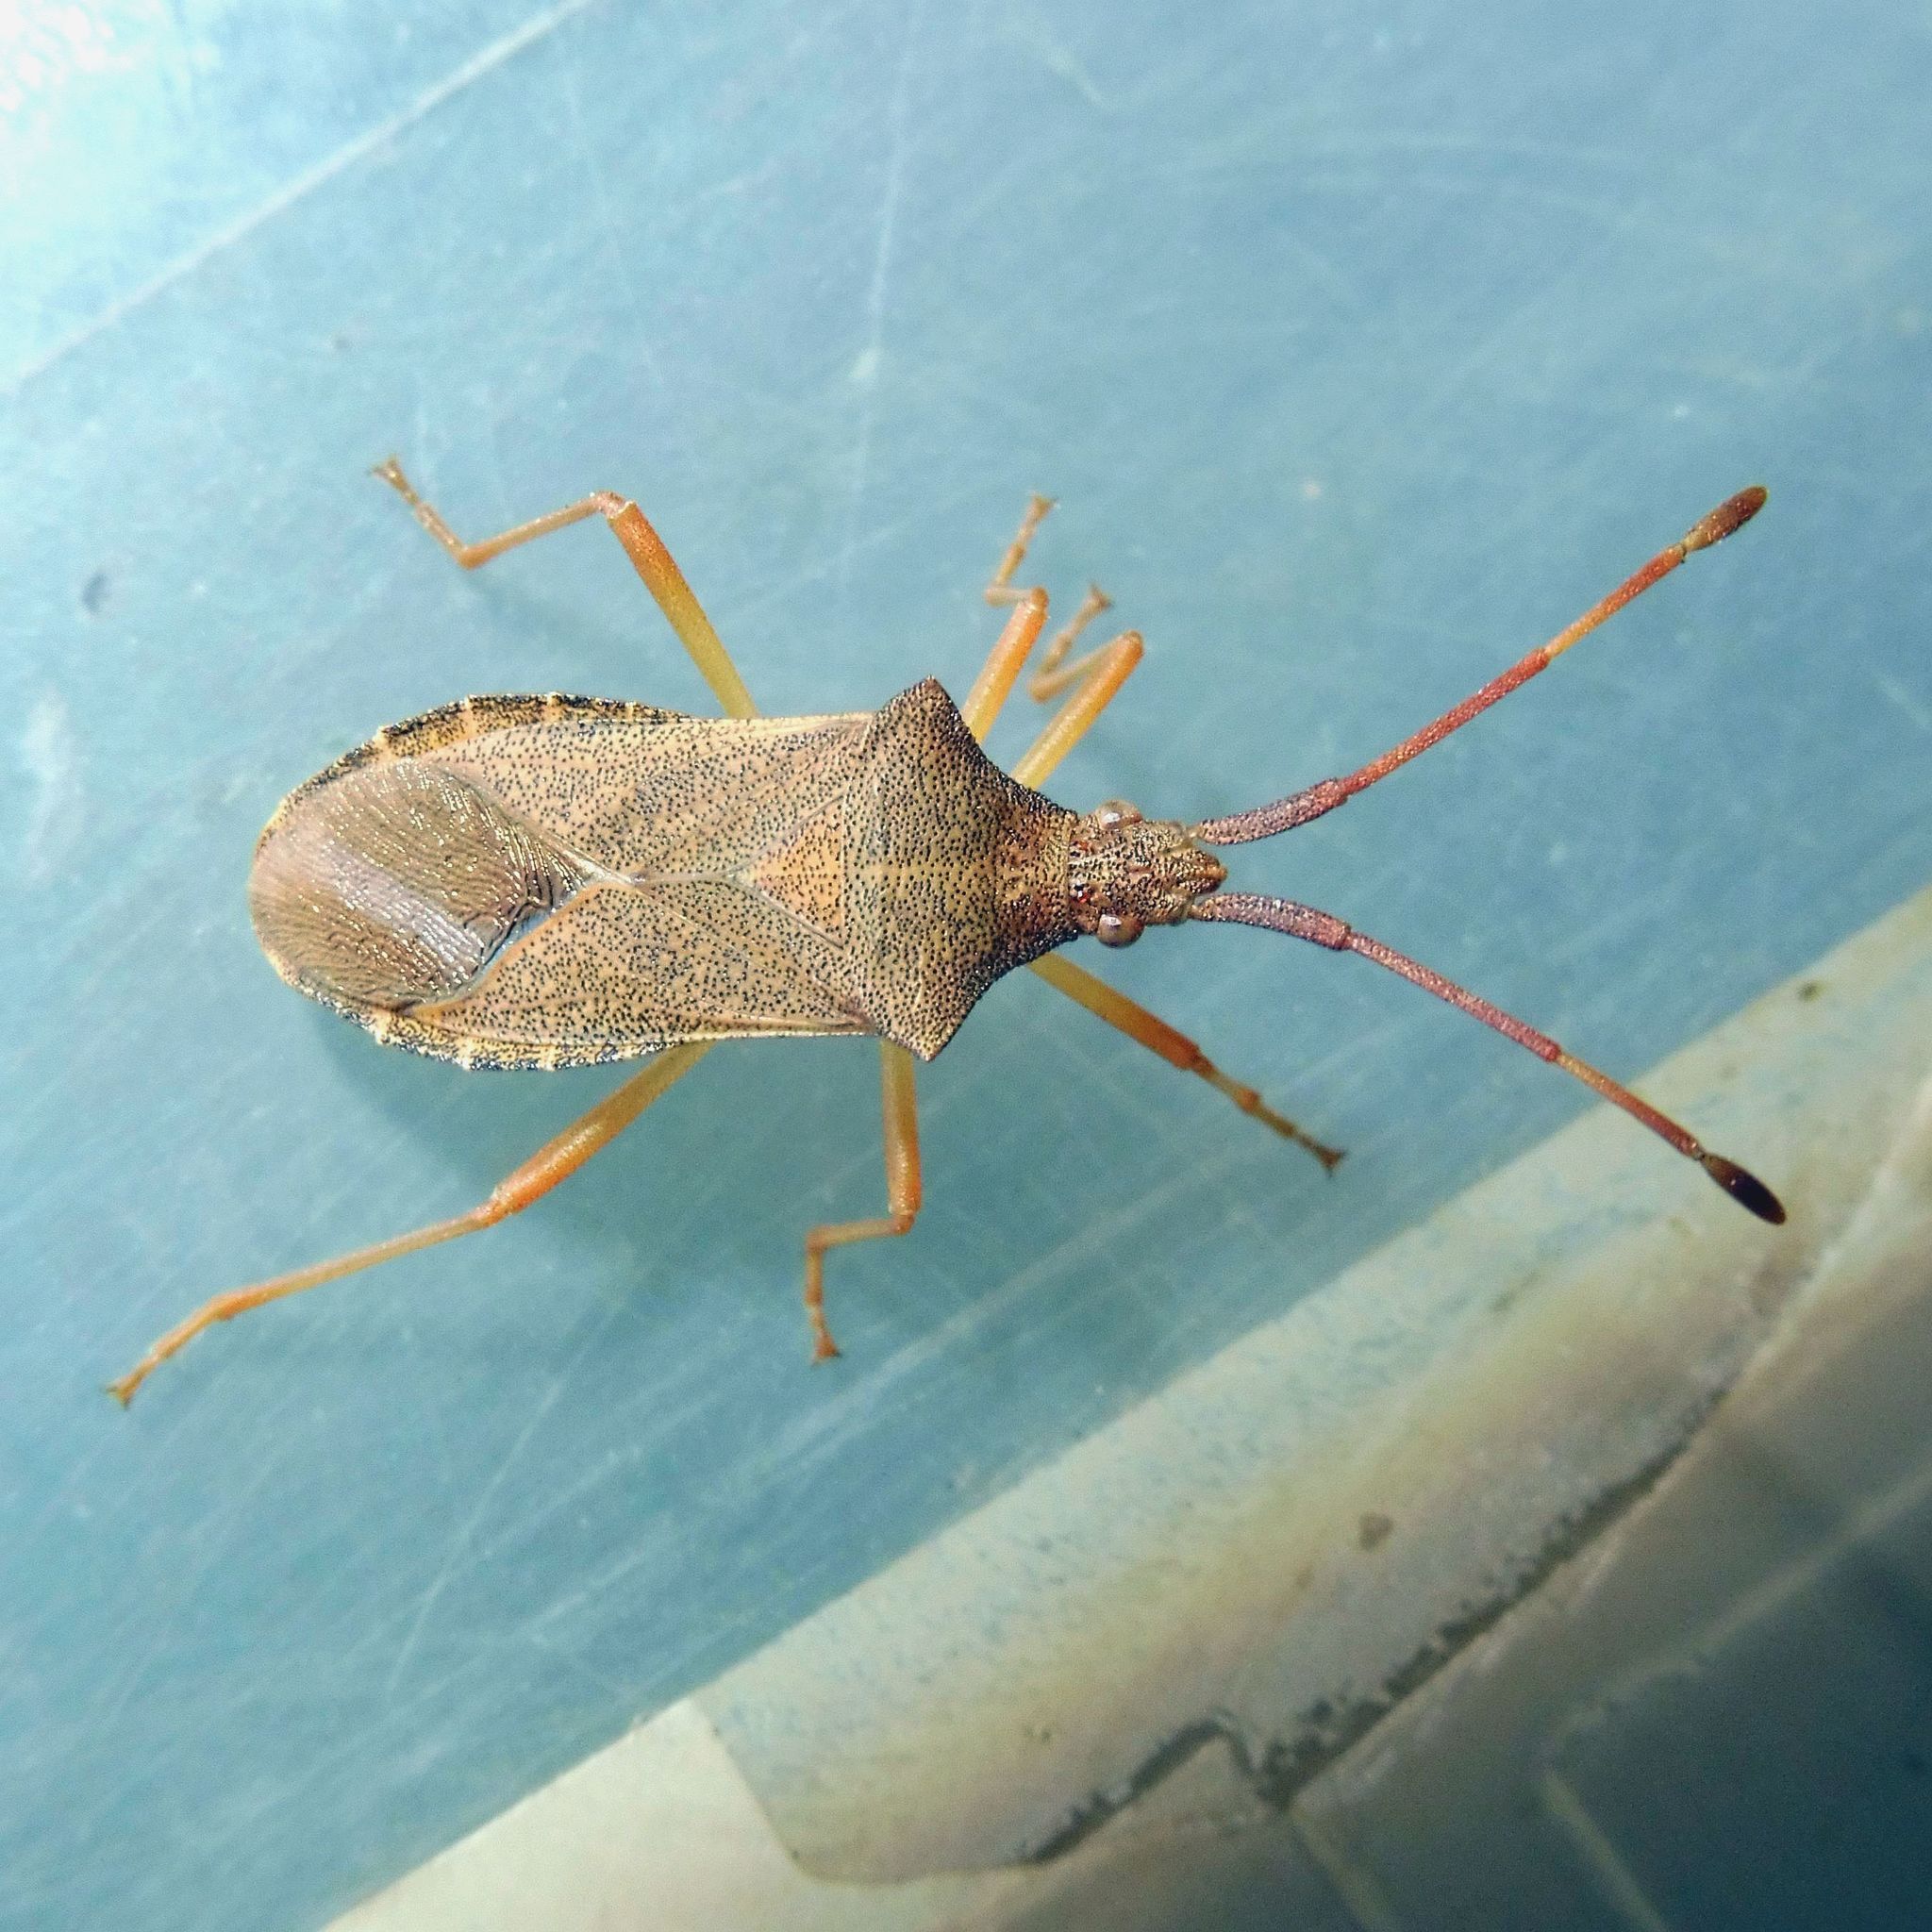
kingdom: Animalia
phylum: Arthropoda
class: Insecta
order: Hemiptera
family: Coreidae
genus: Gonocerus
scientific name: Gonocerus acuteangulatus
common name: Box bug
